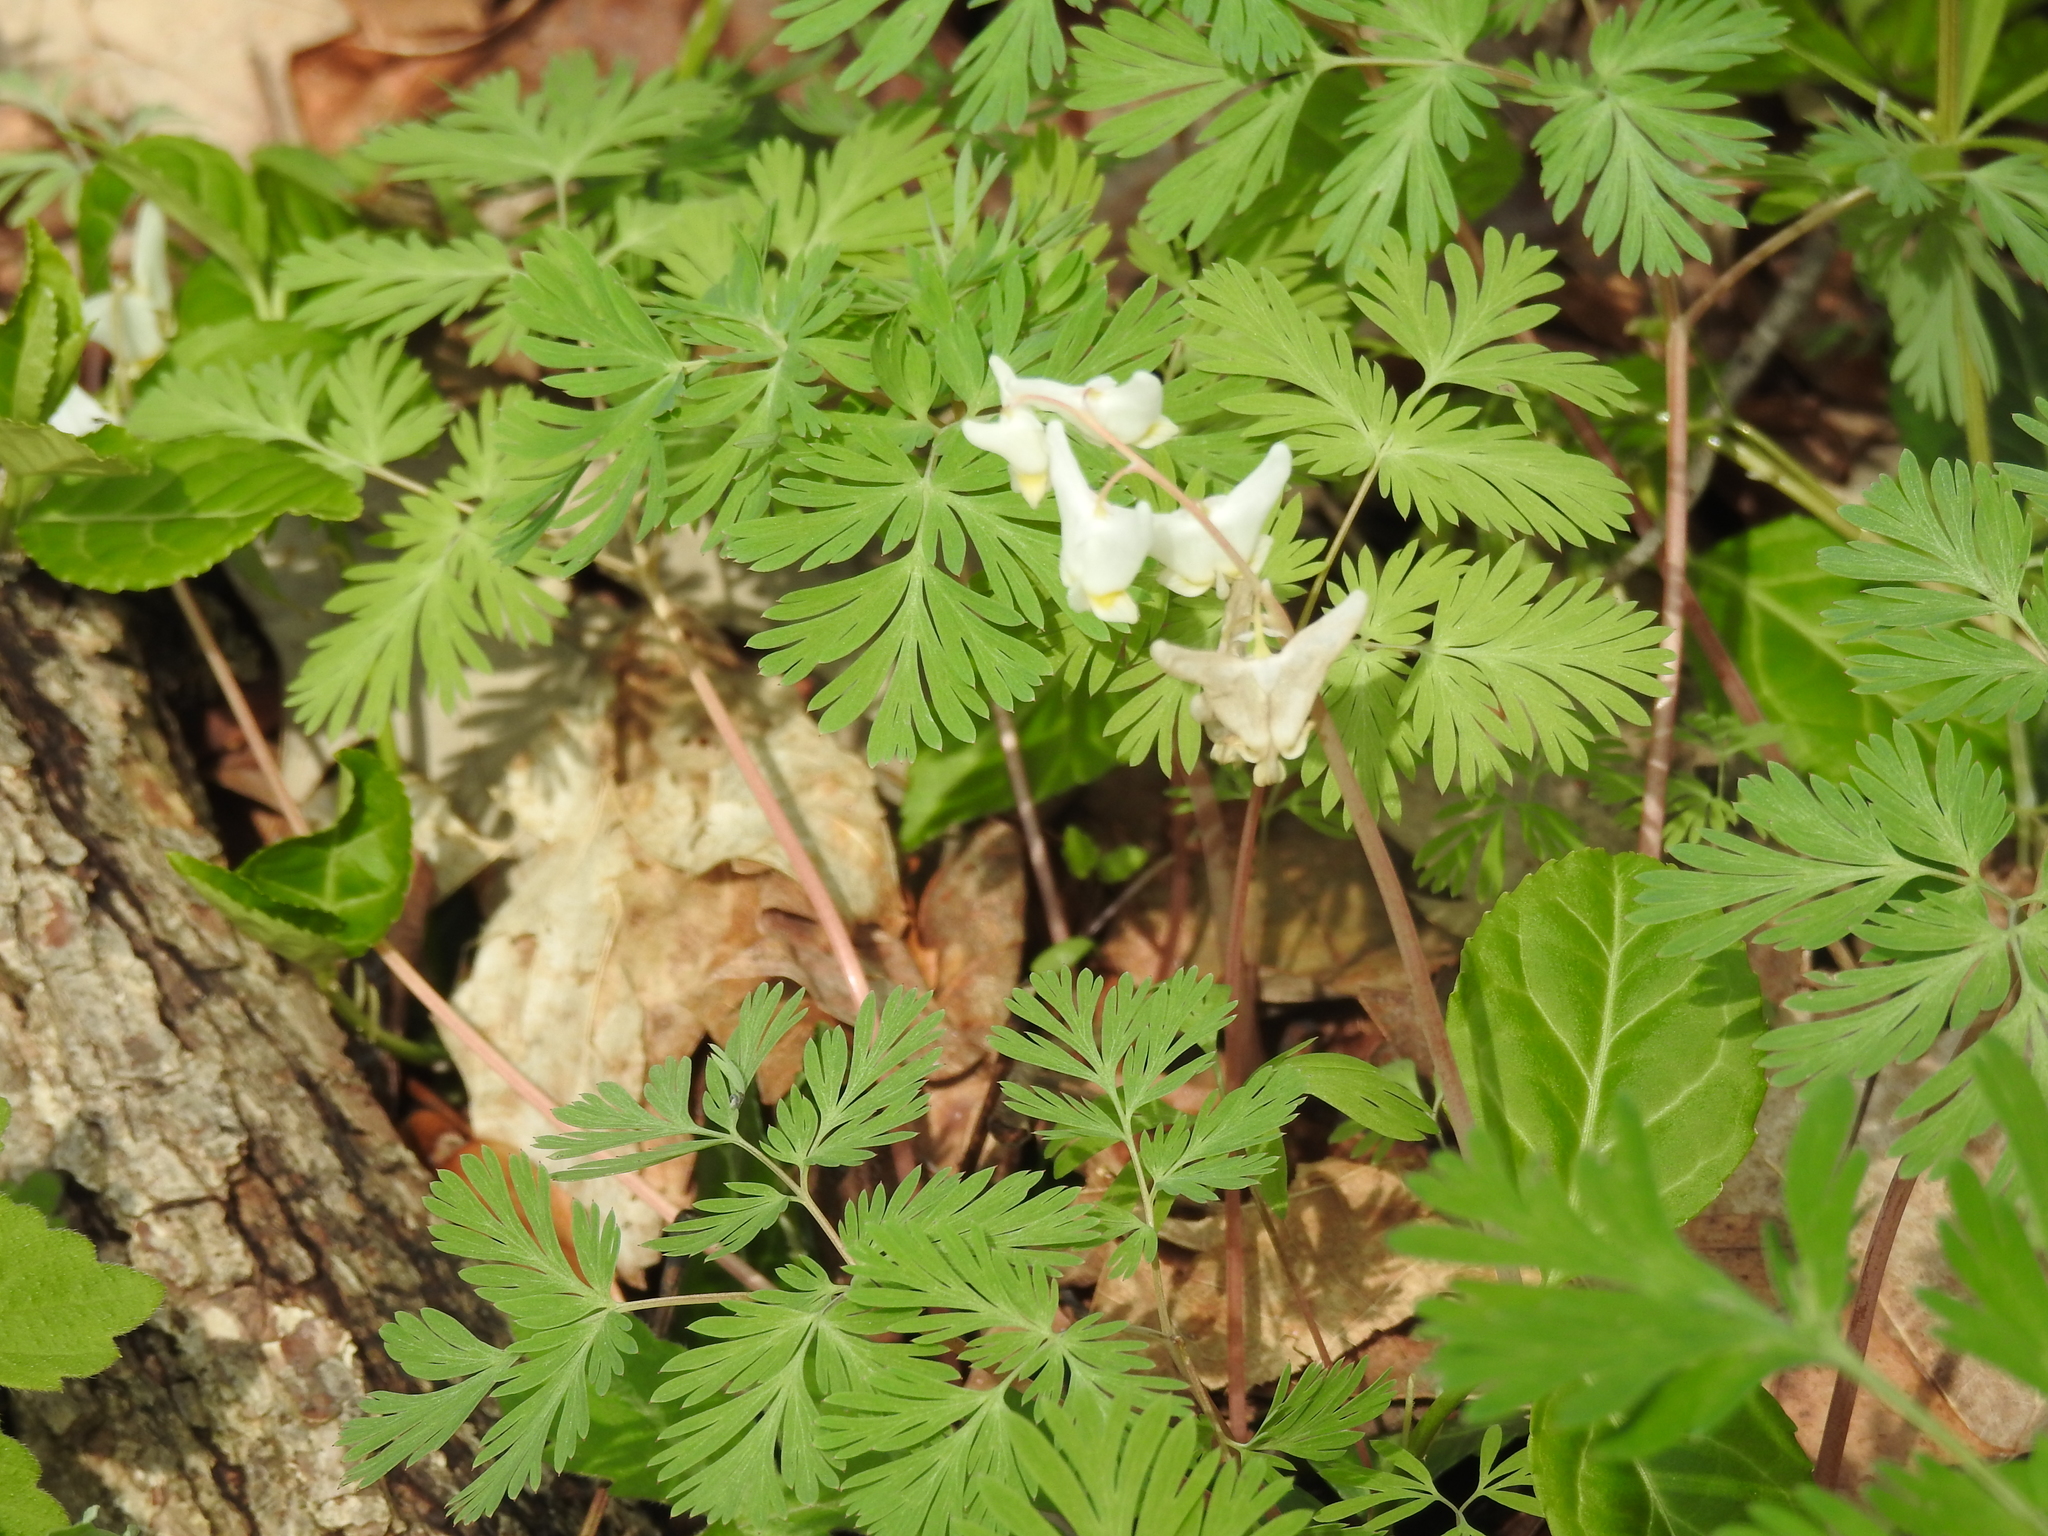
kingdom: Plantae
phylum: Tracheophyta
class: Magnoliopsida
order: Ranunculales
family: Papaveraceae
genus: Dicentra
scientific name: Dicentra cucullaria
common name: Dutchman's breeches
